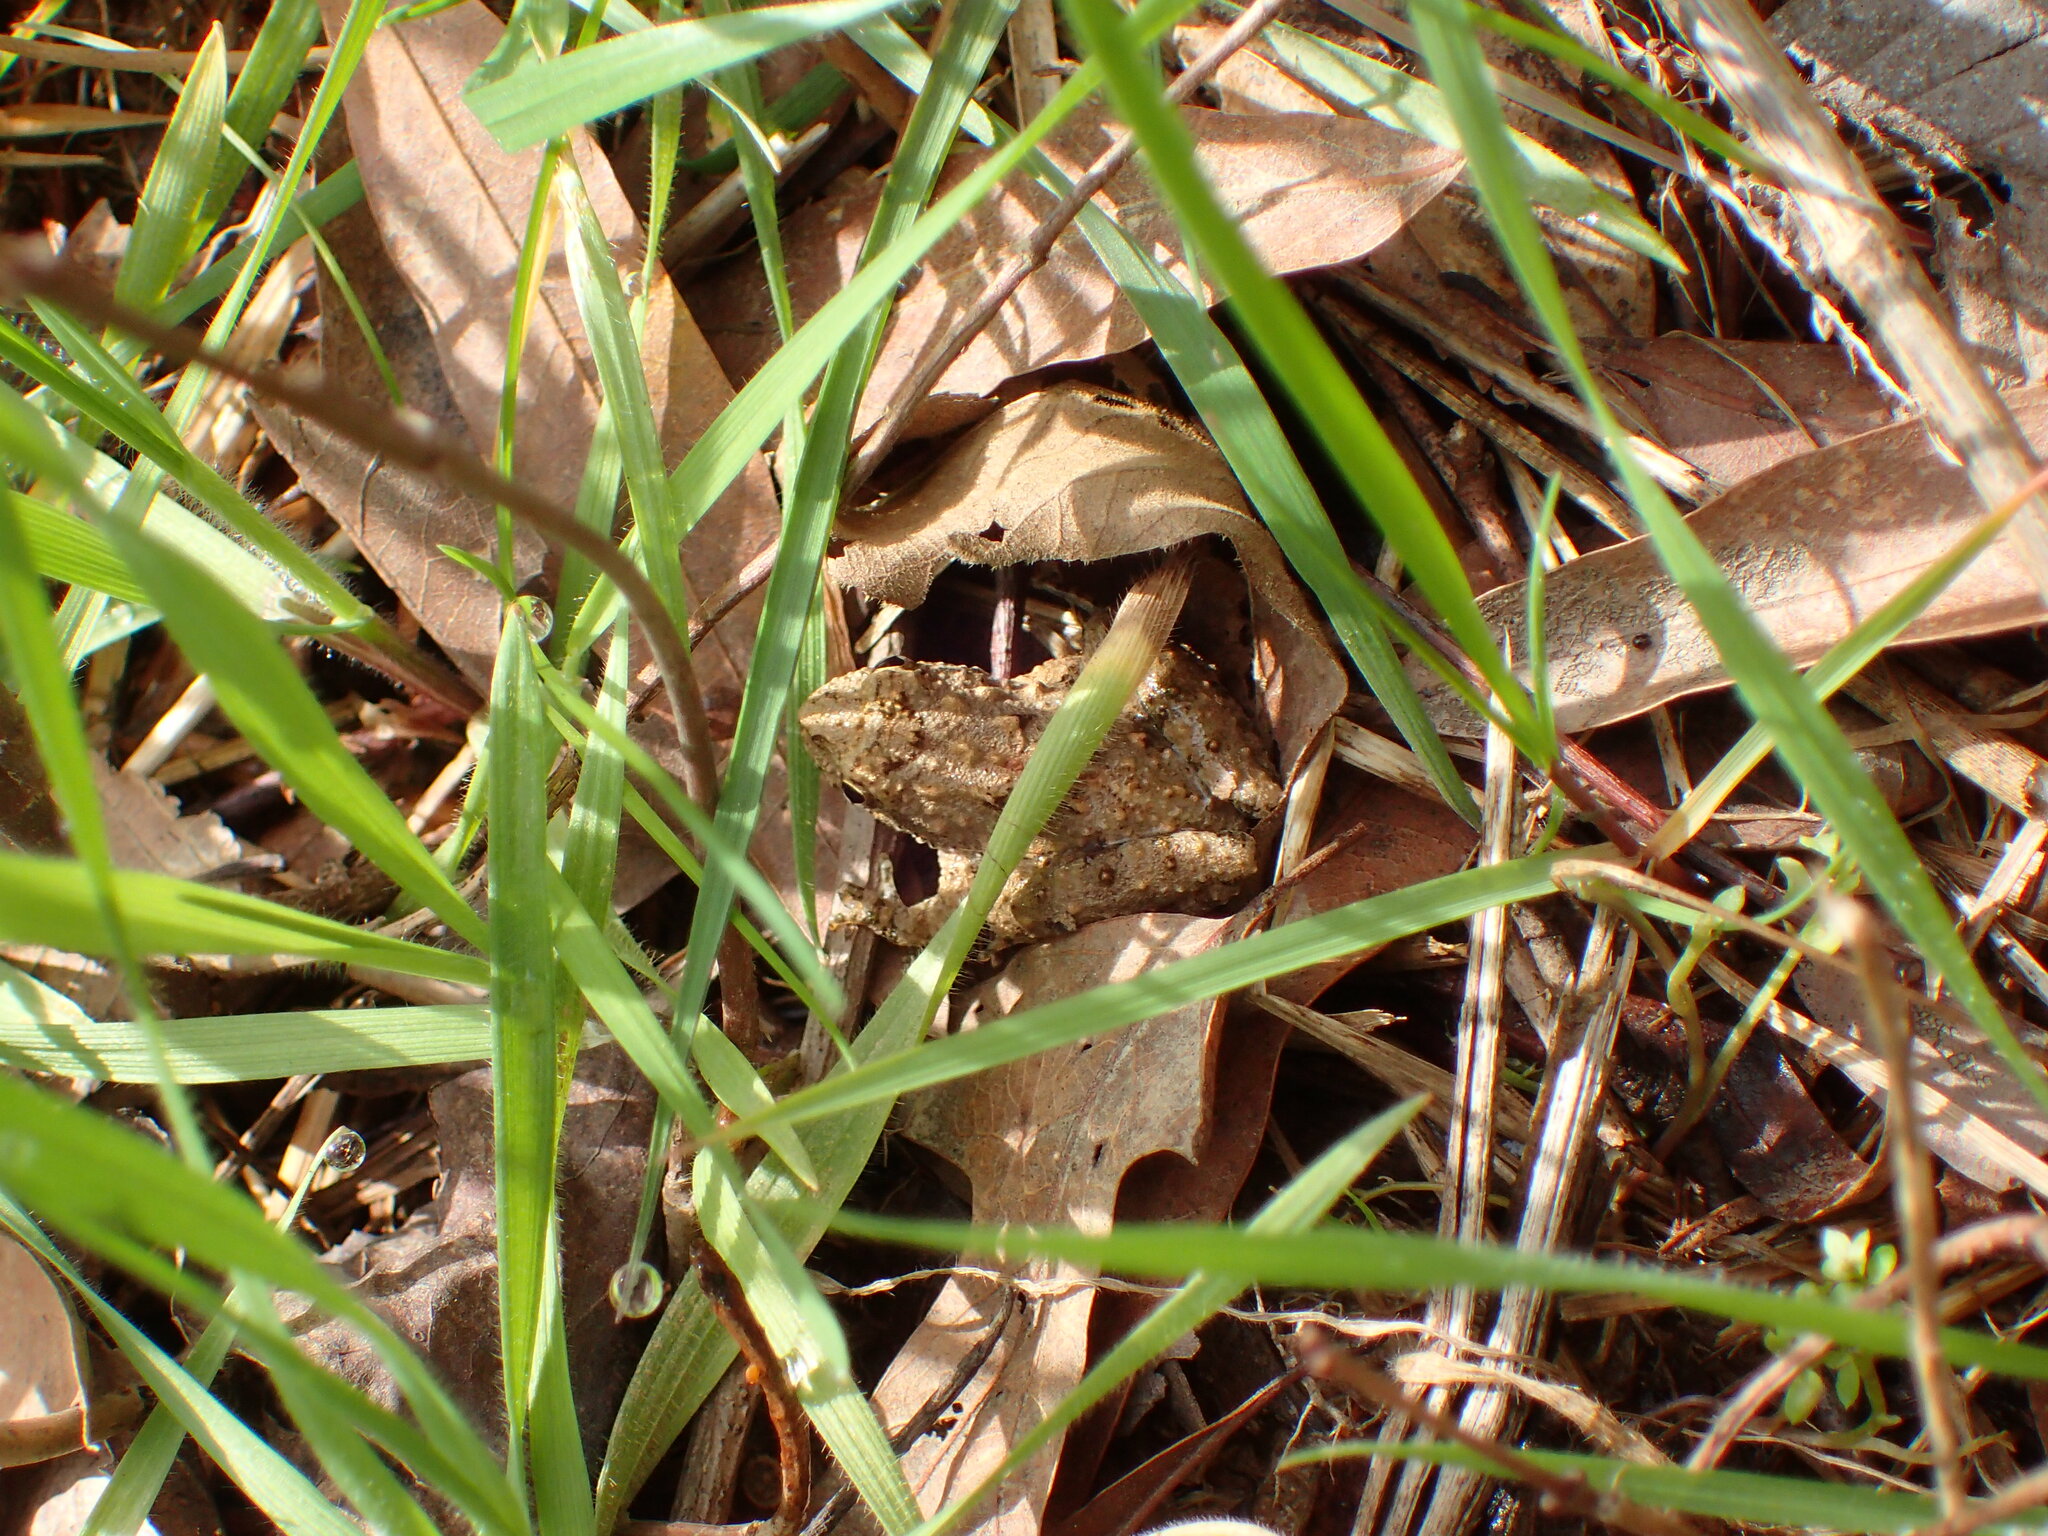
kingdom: Animalia
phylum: Chordata
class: Amphibia
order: Anura
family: Hylidae
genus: Acris
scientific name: Acris crepitans
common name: Northern cricket frog
